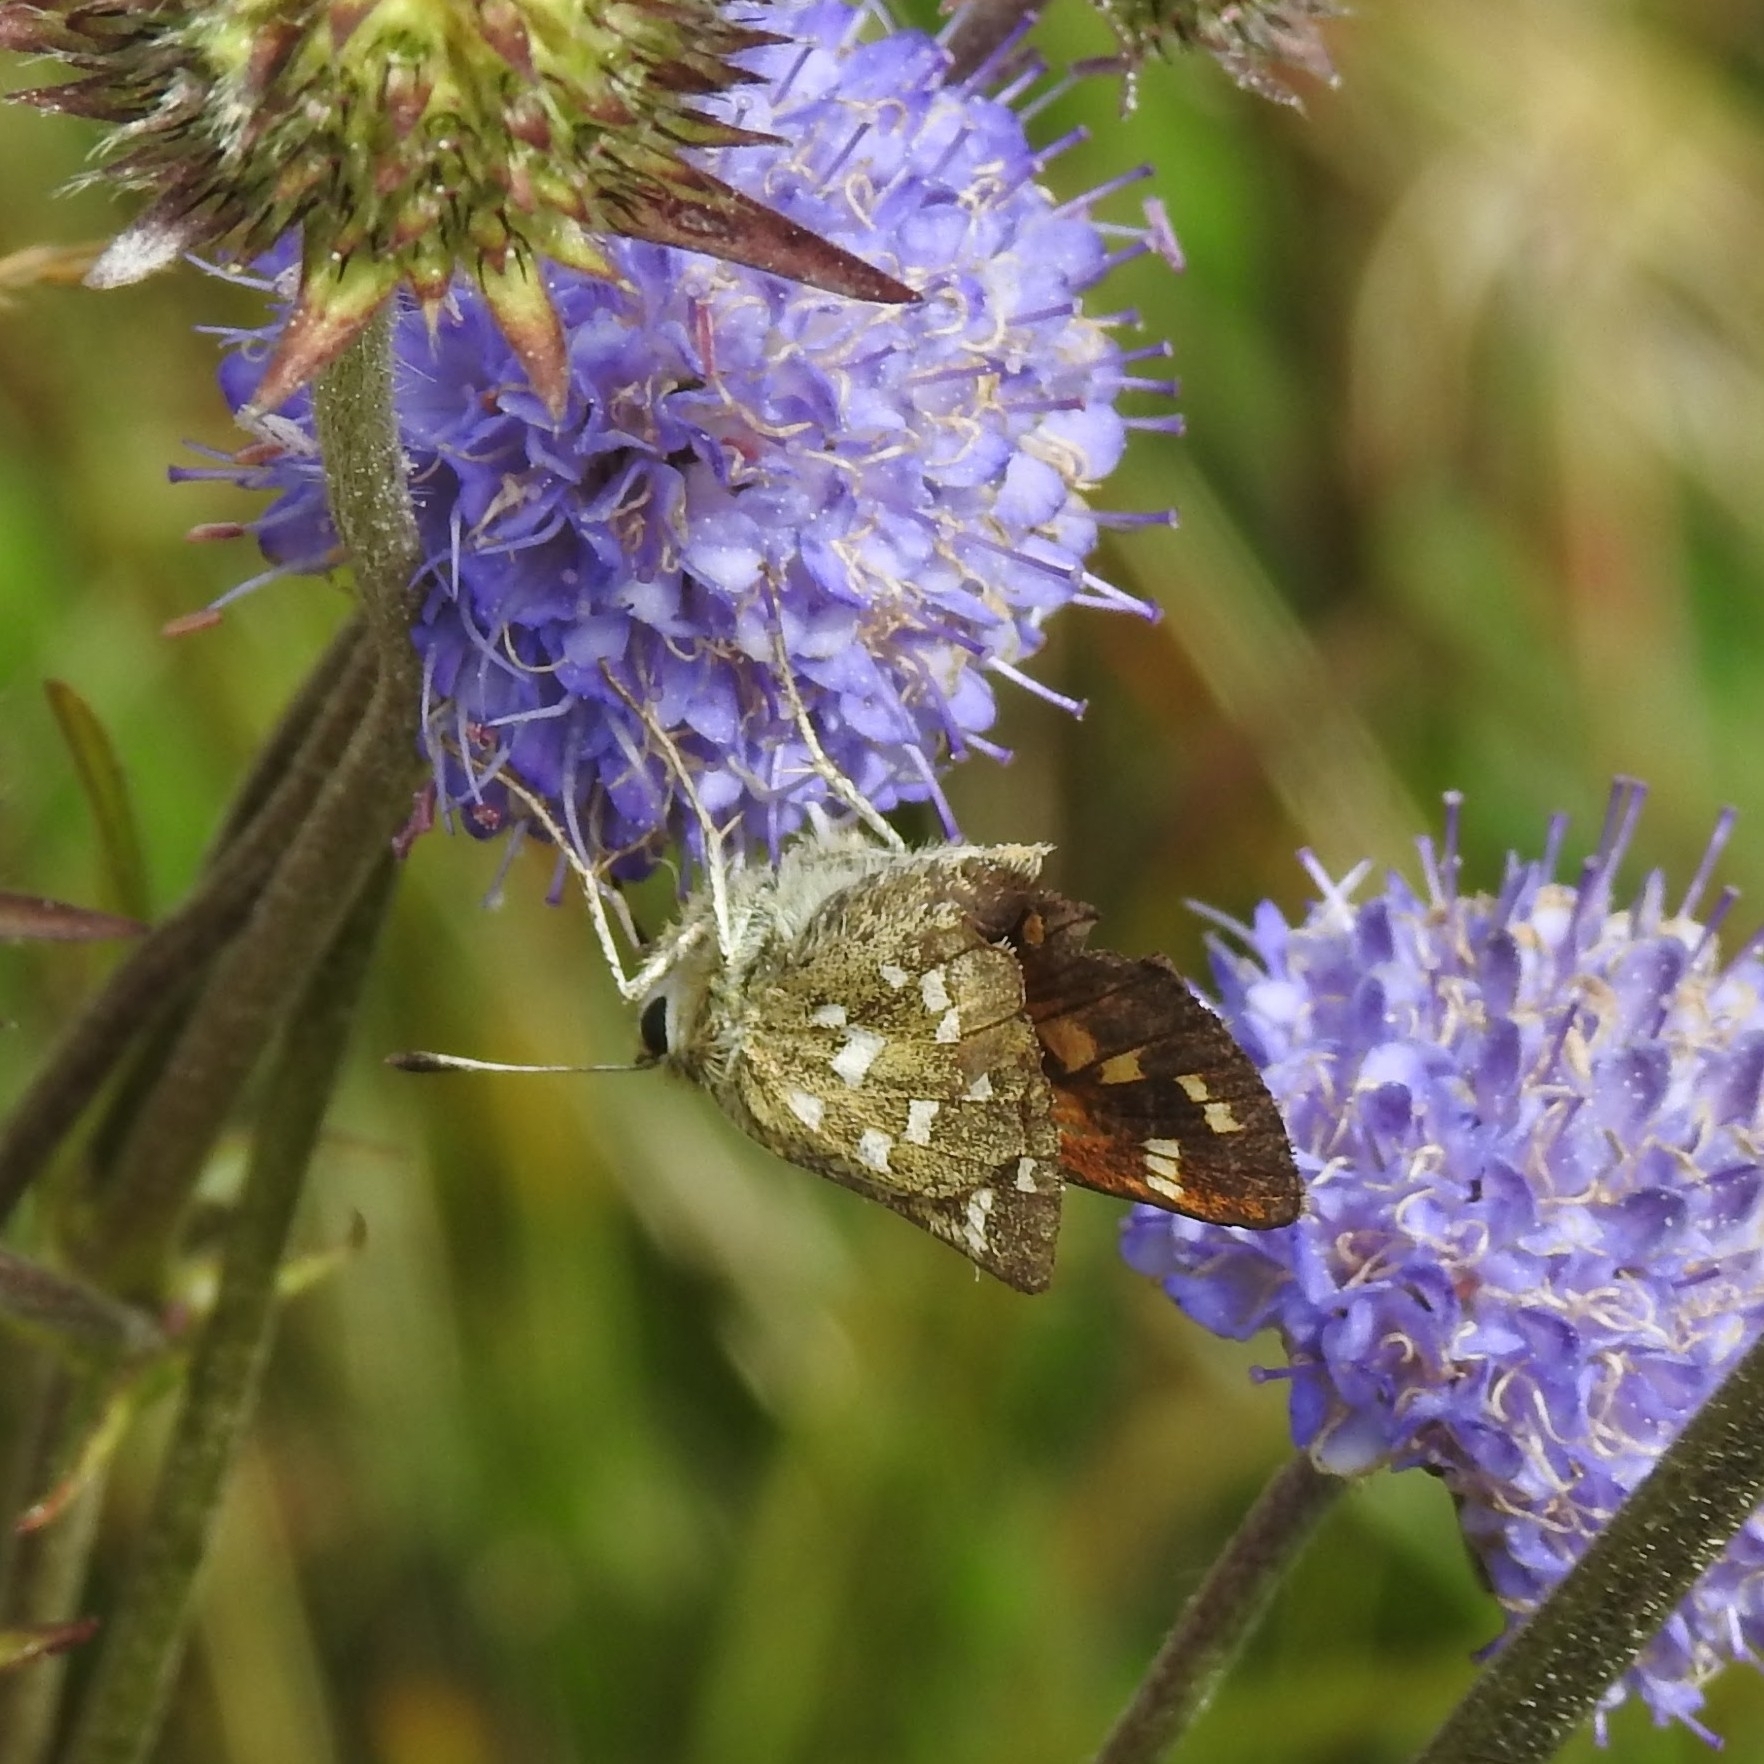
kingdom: Animalia
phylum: Arthropoda
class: Insecta
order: Lepidoptera
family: Hesperiidae
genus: Hesperia
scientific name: Hesperia comma
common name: Common branded skipper
